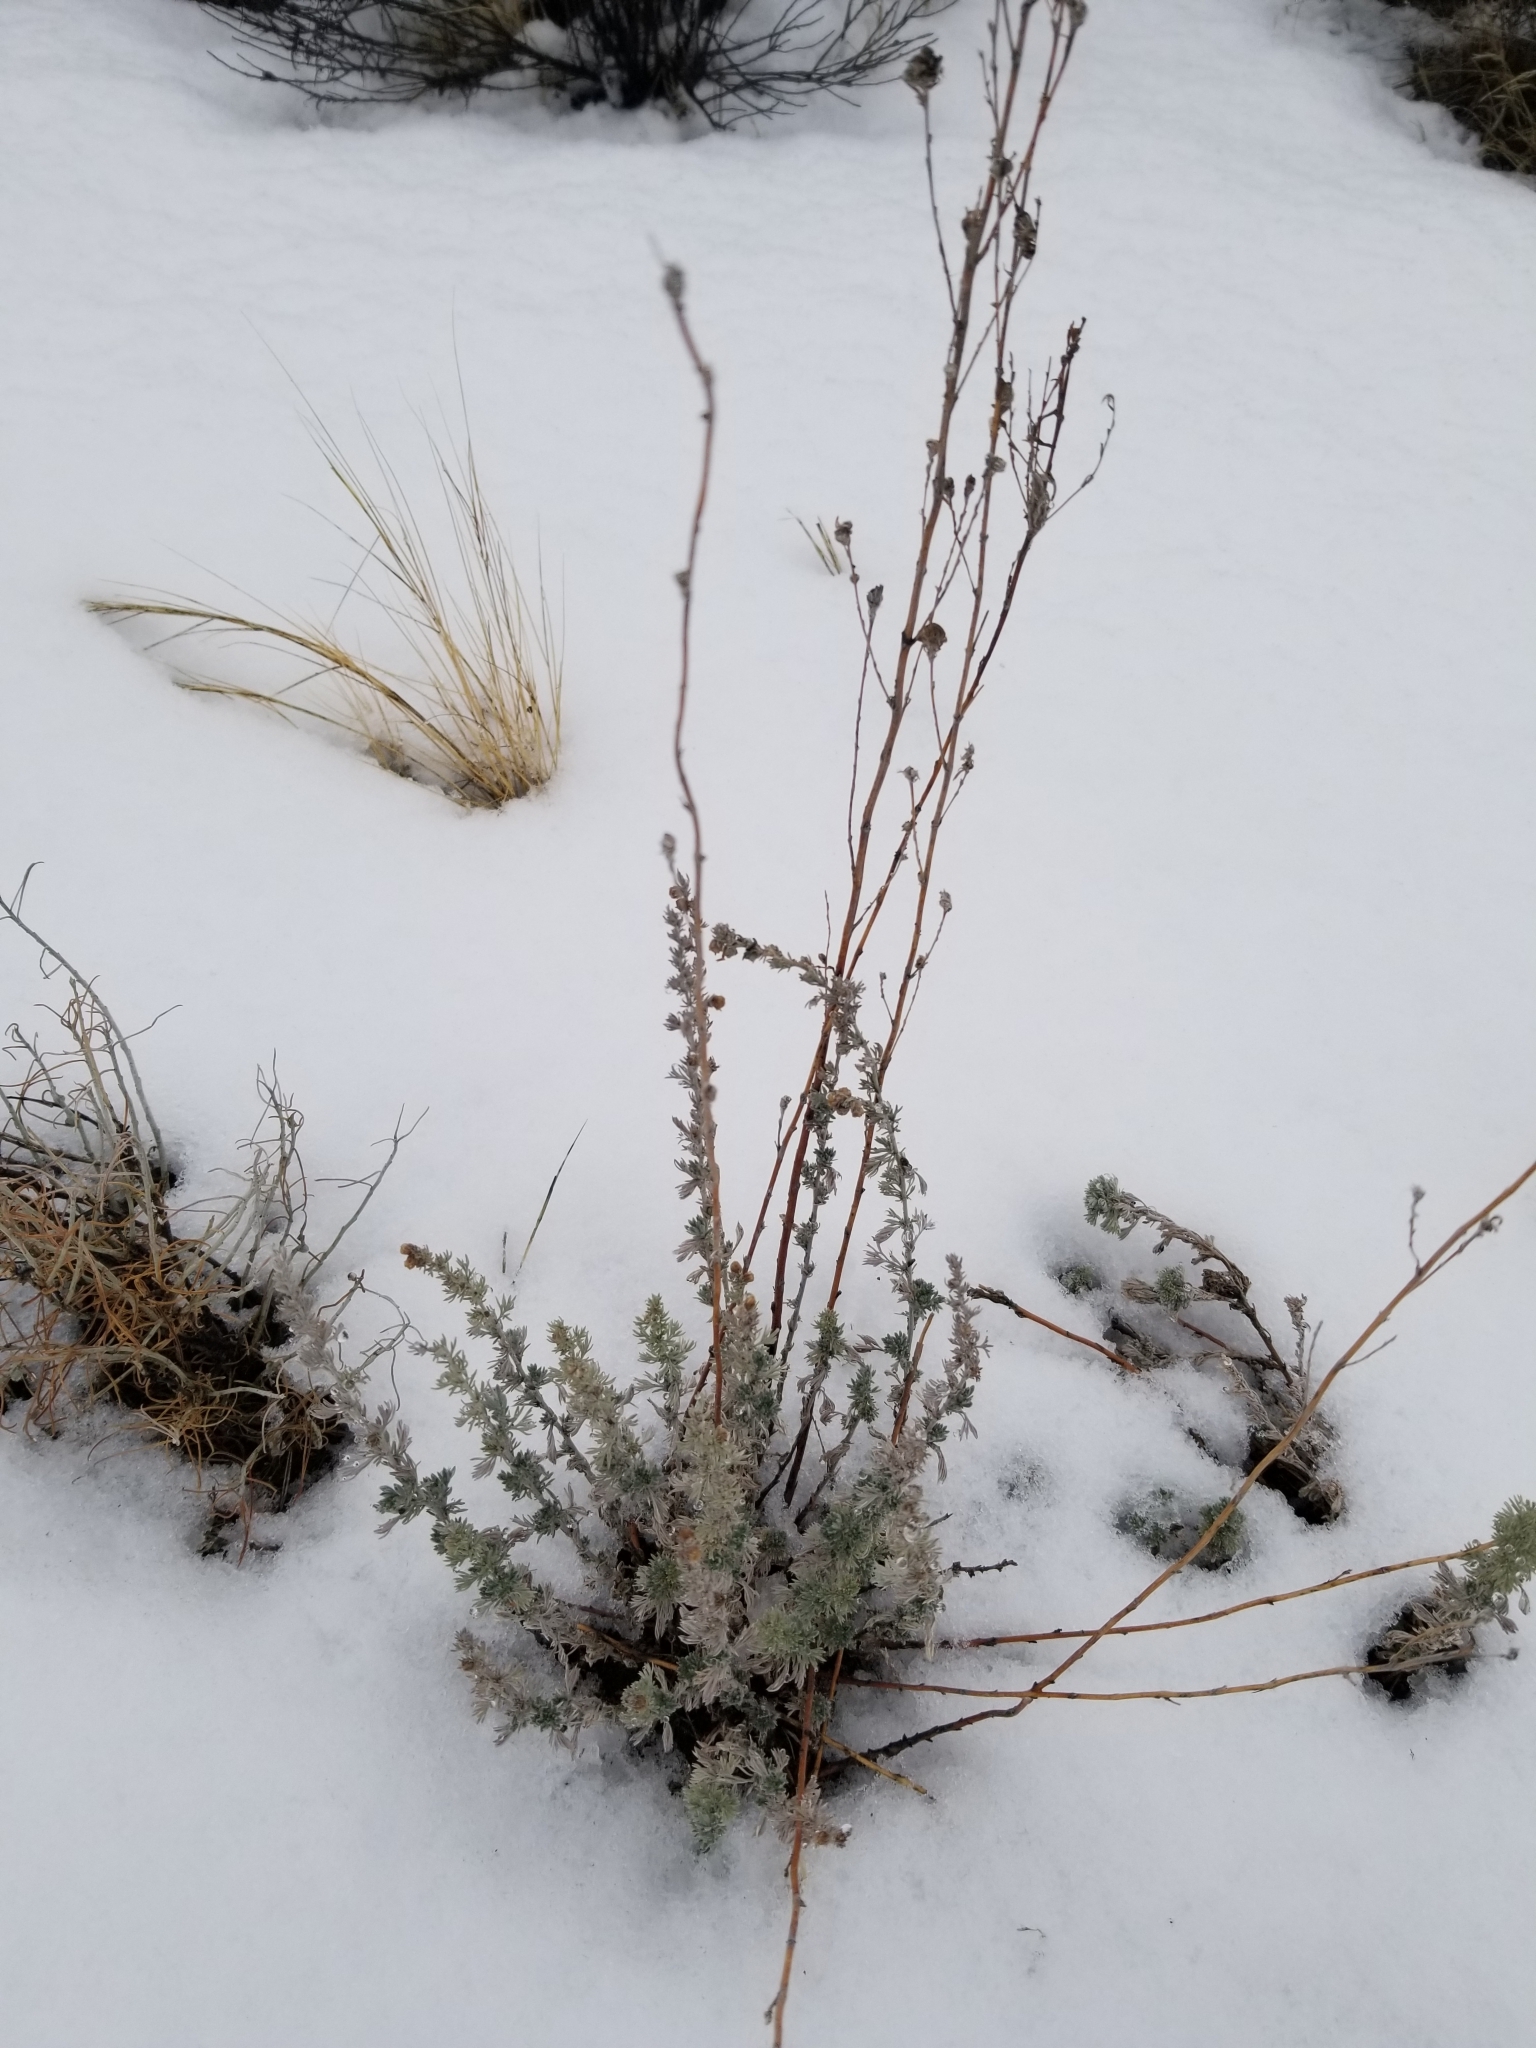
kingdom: Plantae
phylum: Tracheophyta
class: Magnoliopsida
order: Asterales
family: Asteraceae
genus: Artemisia
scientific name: Artemisia frigida
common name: Prairie sagewort
